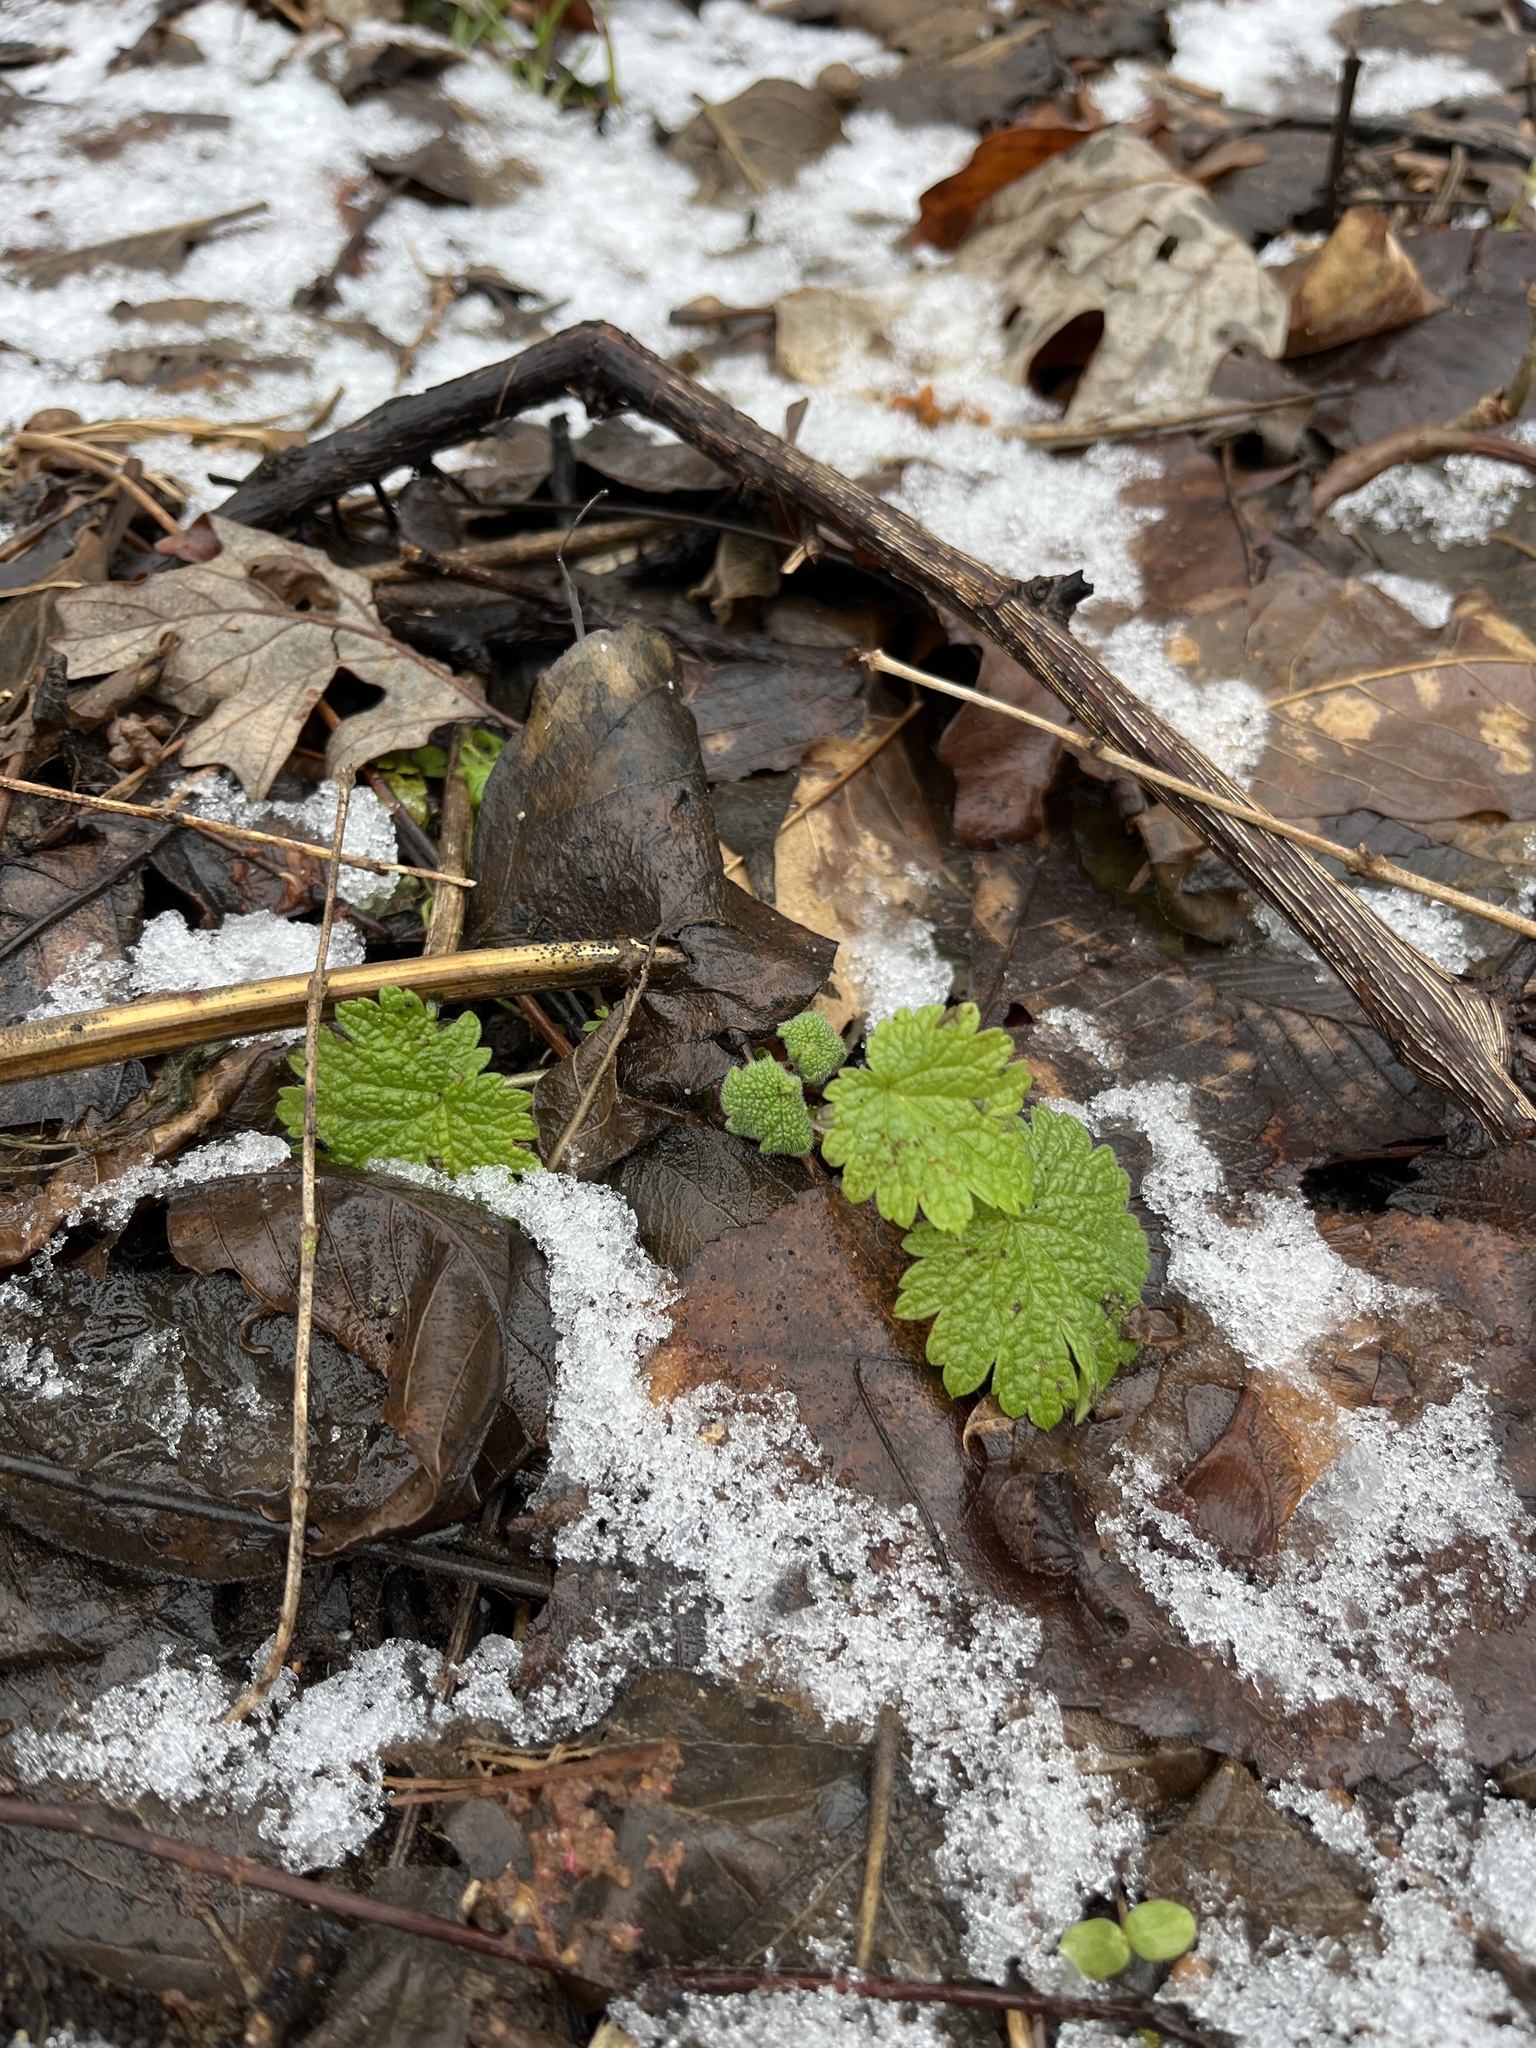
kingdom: Plantae
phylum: Tracheophyta
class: Magnoliopsida
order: Lamiales
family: Lamiaceae
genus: Leonurus
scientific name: Leonurus cardiaca
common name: Motherwort
